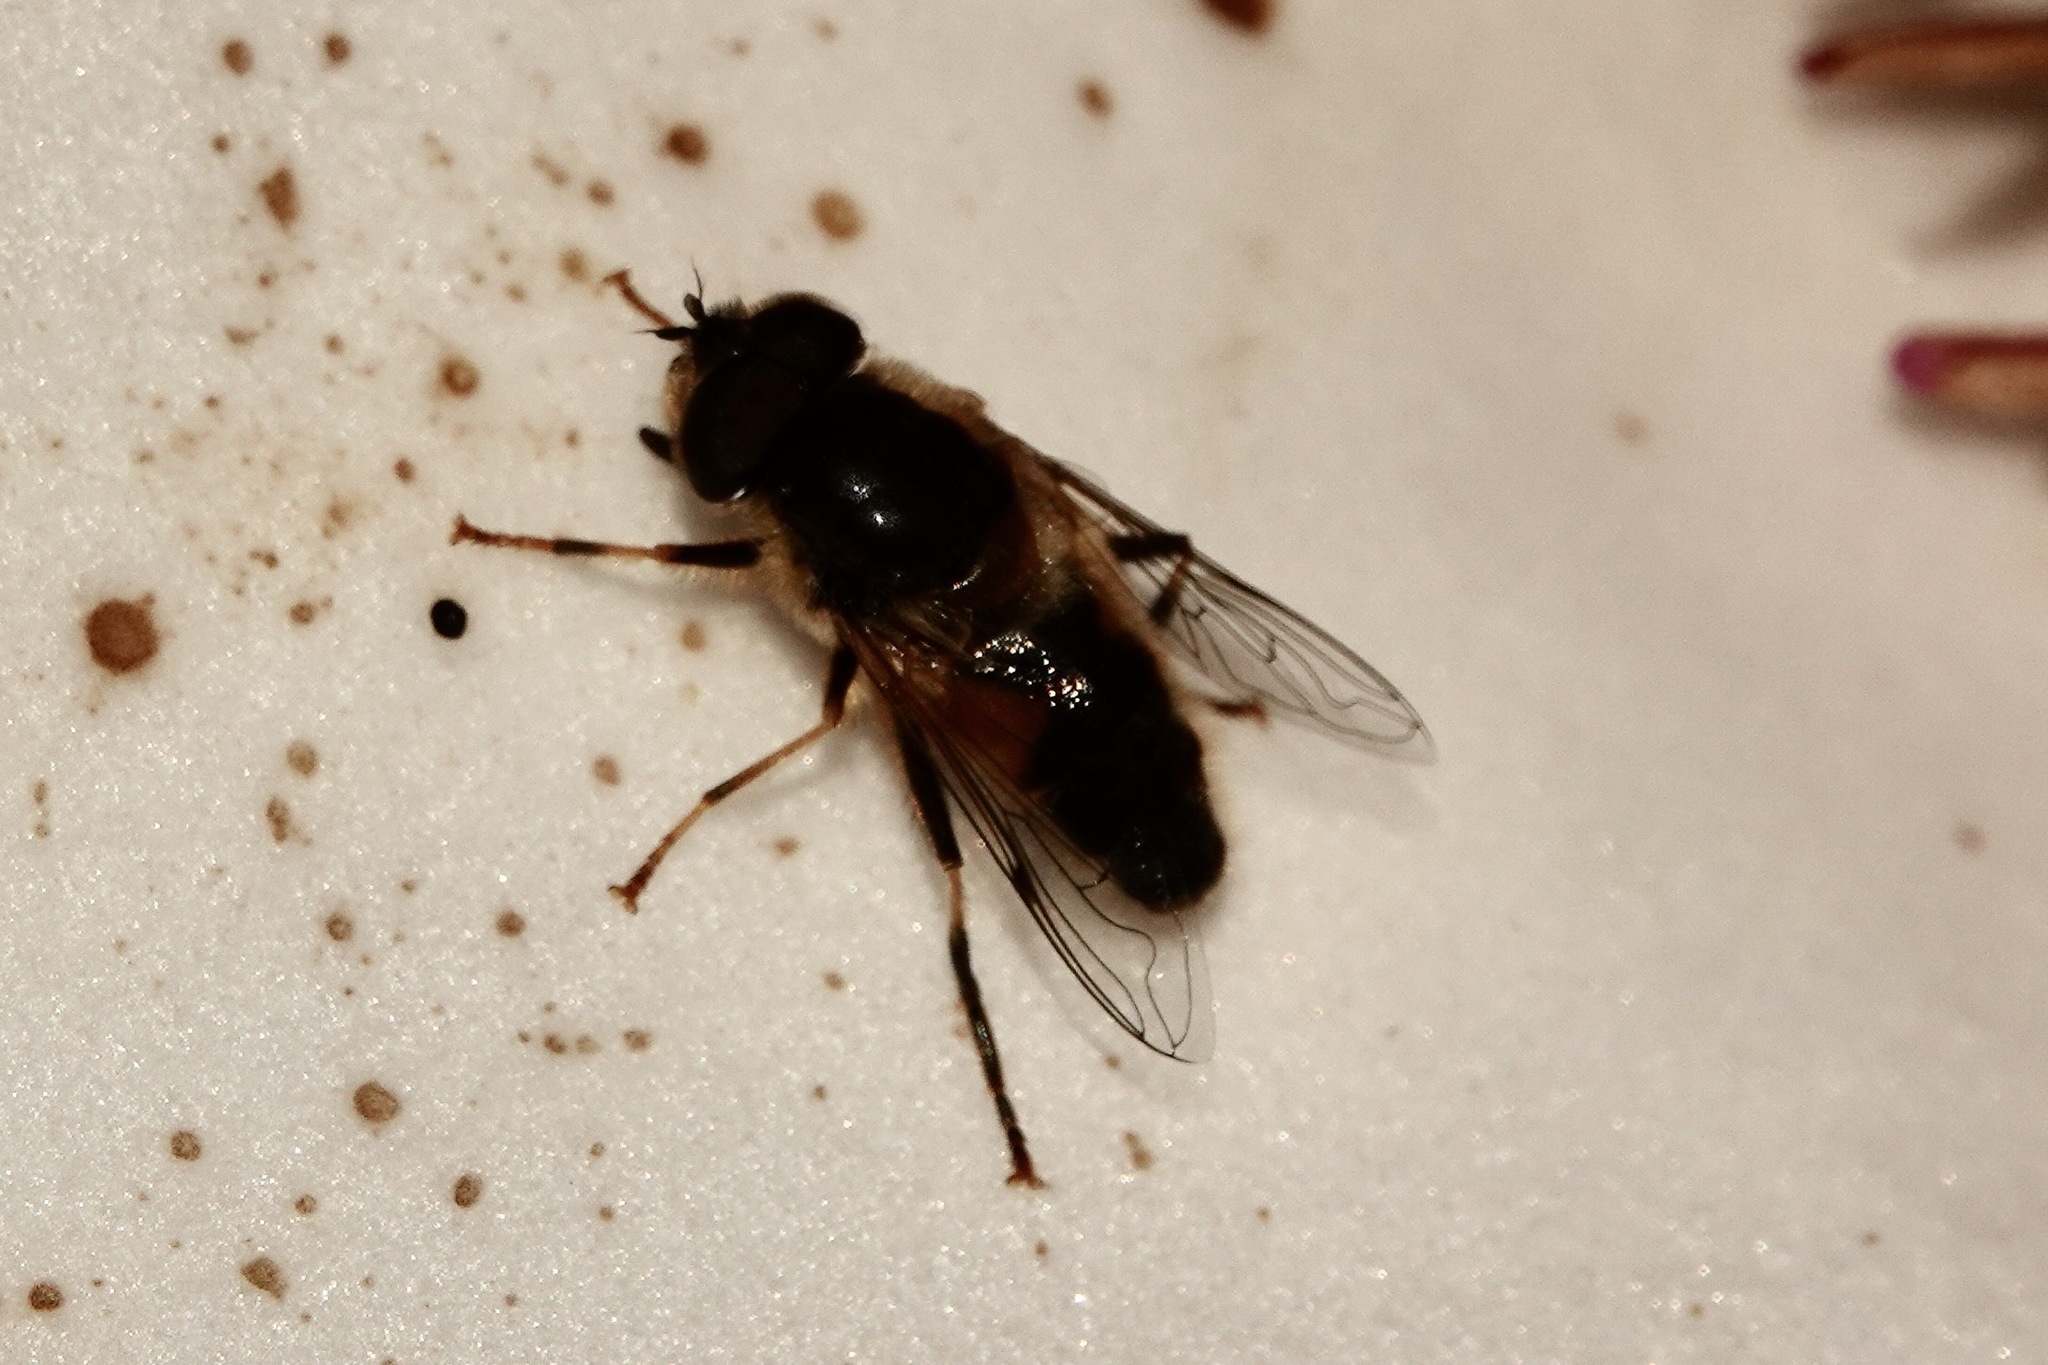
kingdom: Animalia
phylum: Arthropoda
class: Insecta
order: Diptera
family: Syrphidae
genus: Eristalis
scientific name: Eristalis pertinax
